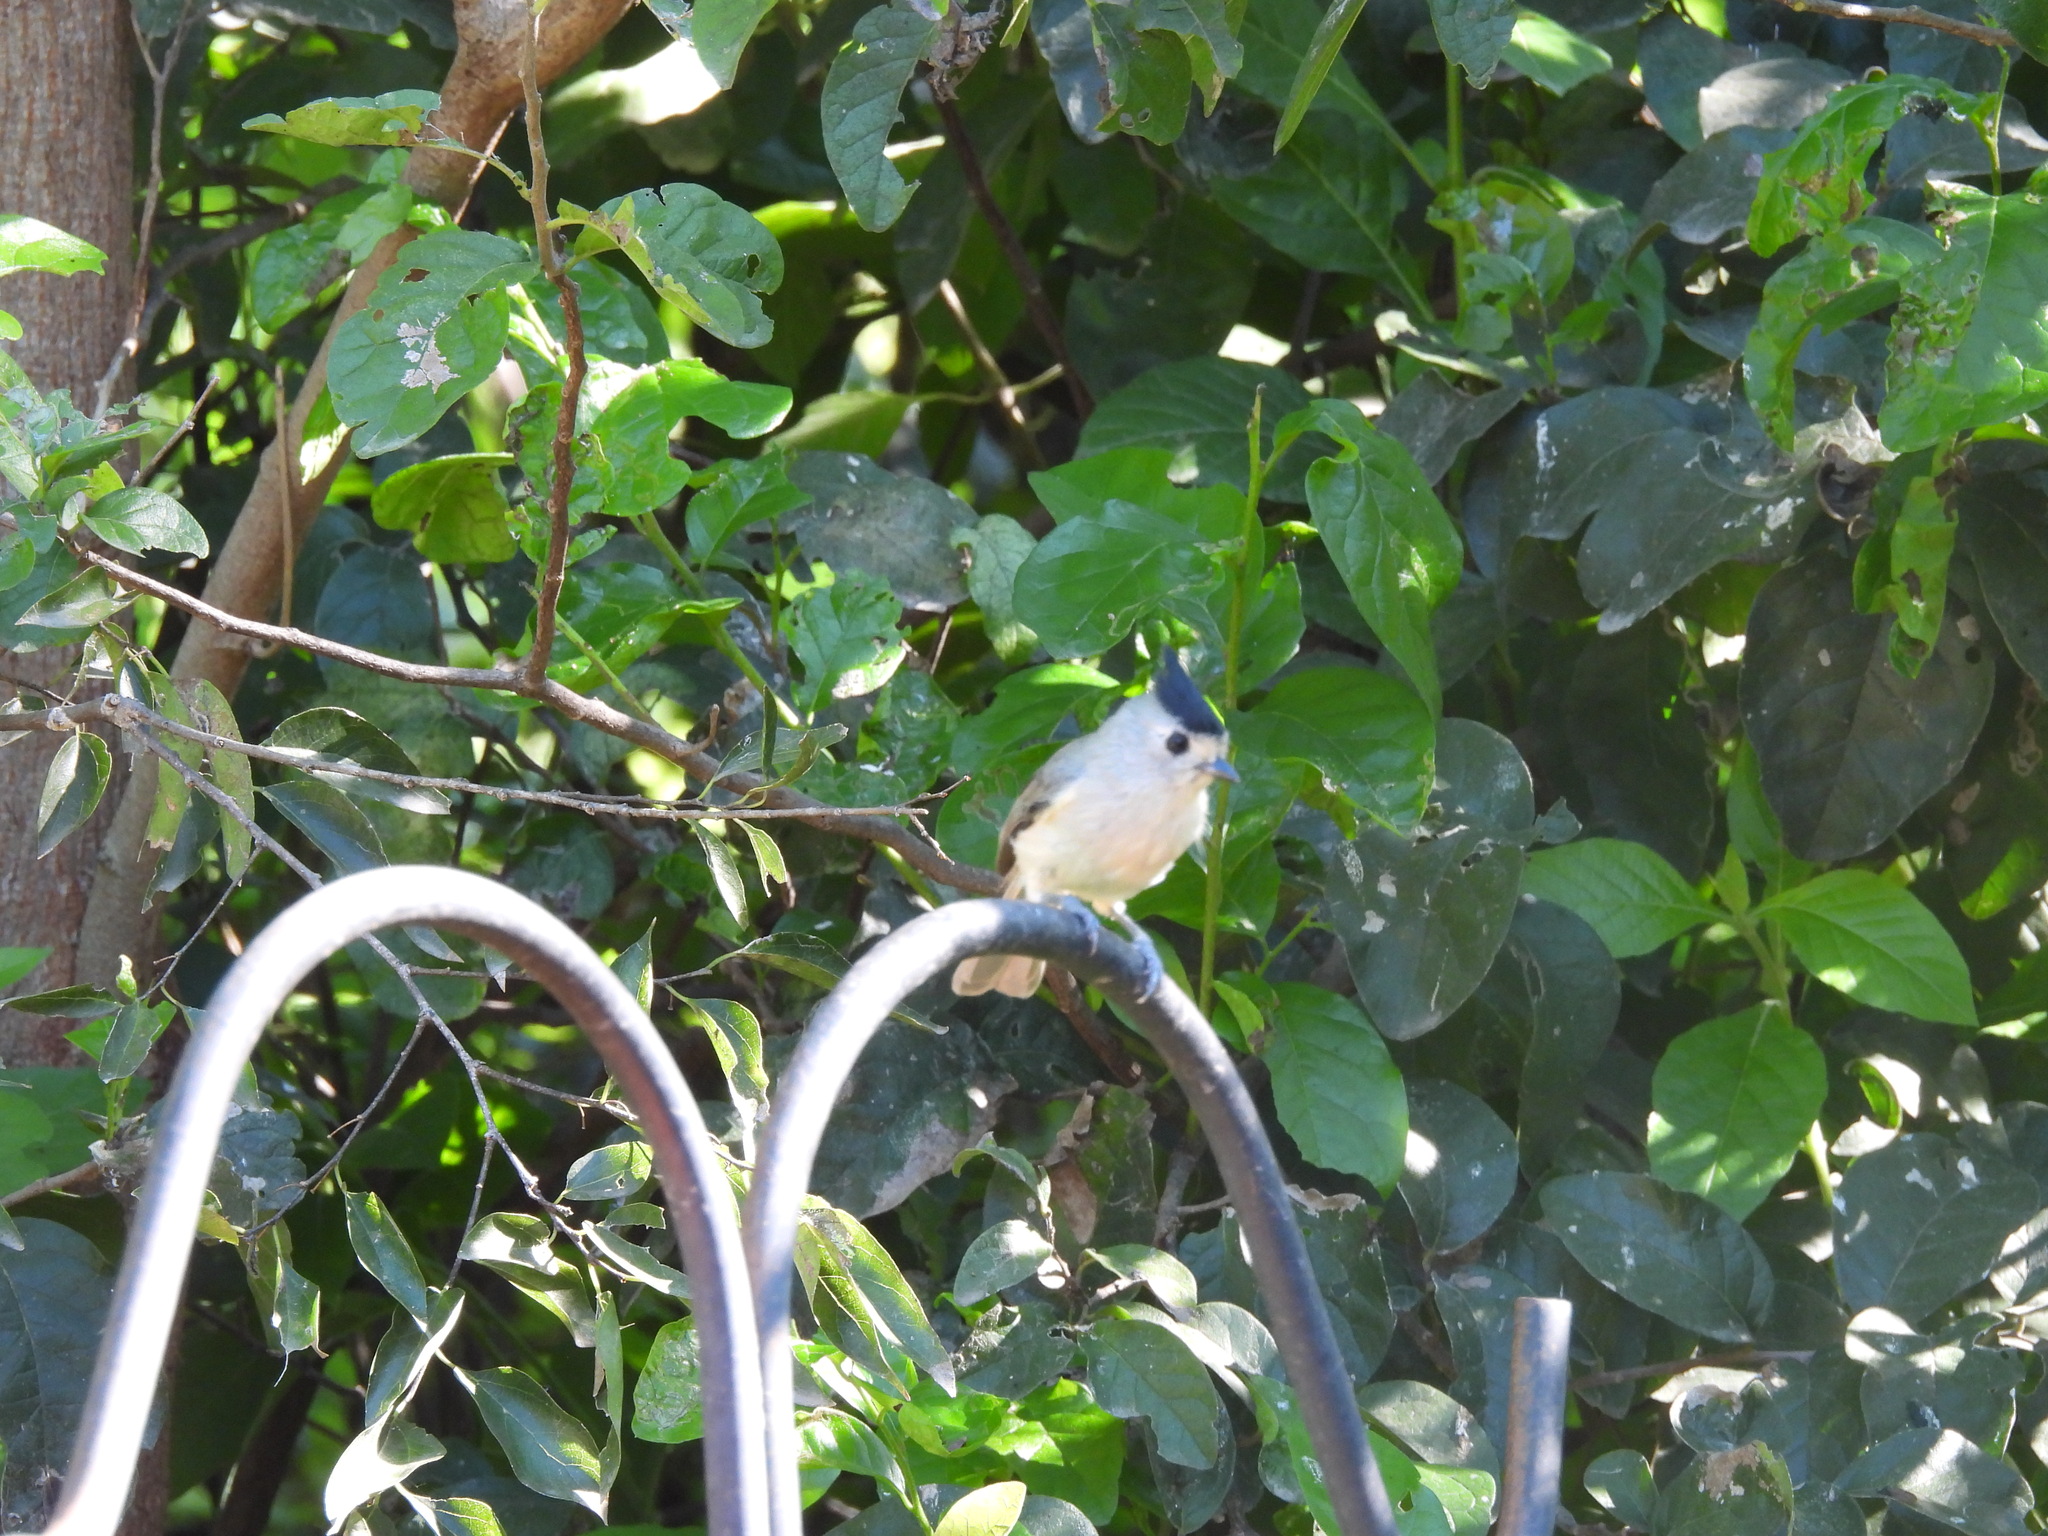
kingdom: Animalia
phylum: Chordata
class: Aves
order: Passeriformes
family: Paridae
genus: Baeolophus
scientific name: Baeolophus atricristatus
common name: Black-crested titmouse
